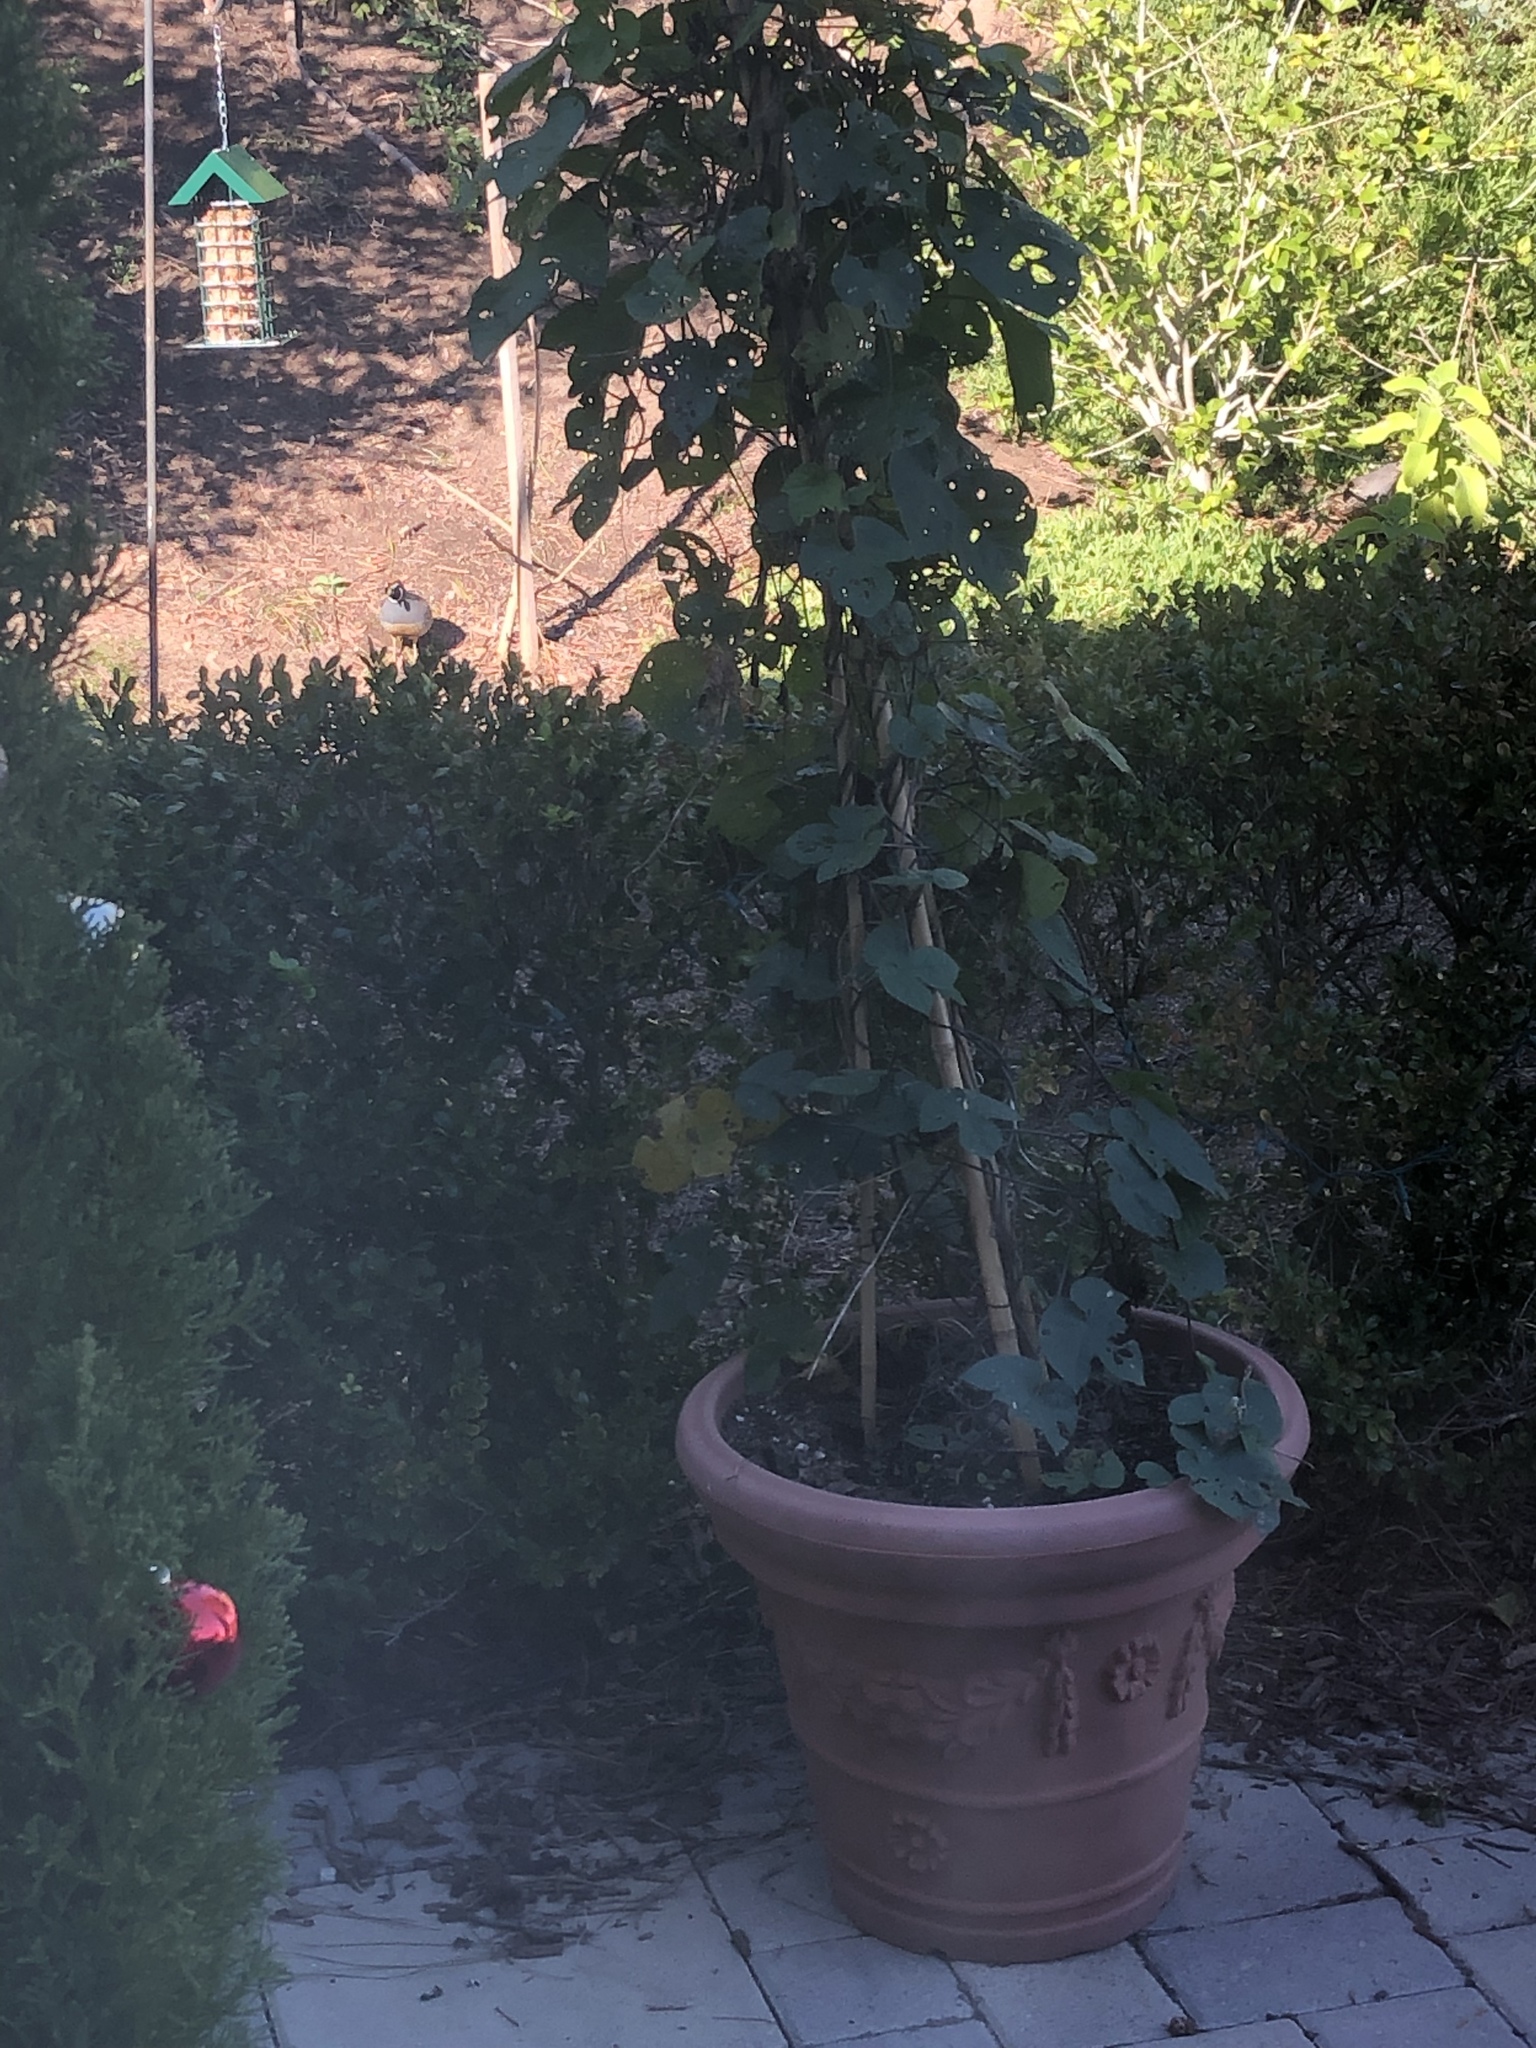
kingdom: Animalia
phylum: Chordata
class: Aves
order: Galliformes
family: Odontophoridae
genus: Callipepla
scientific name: Callipepla californica
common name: California quail
